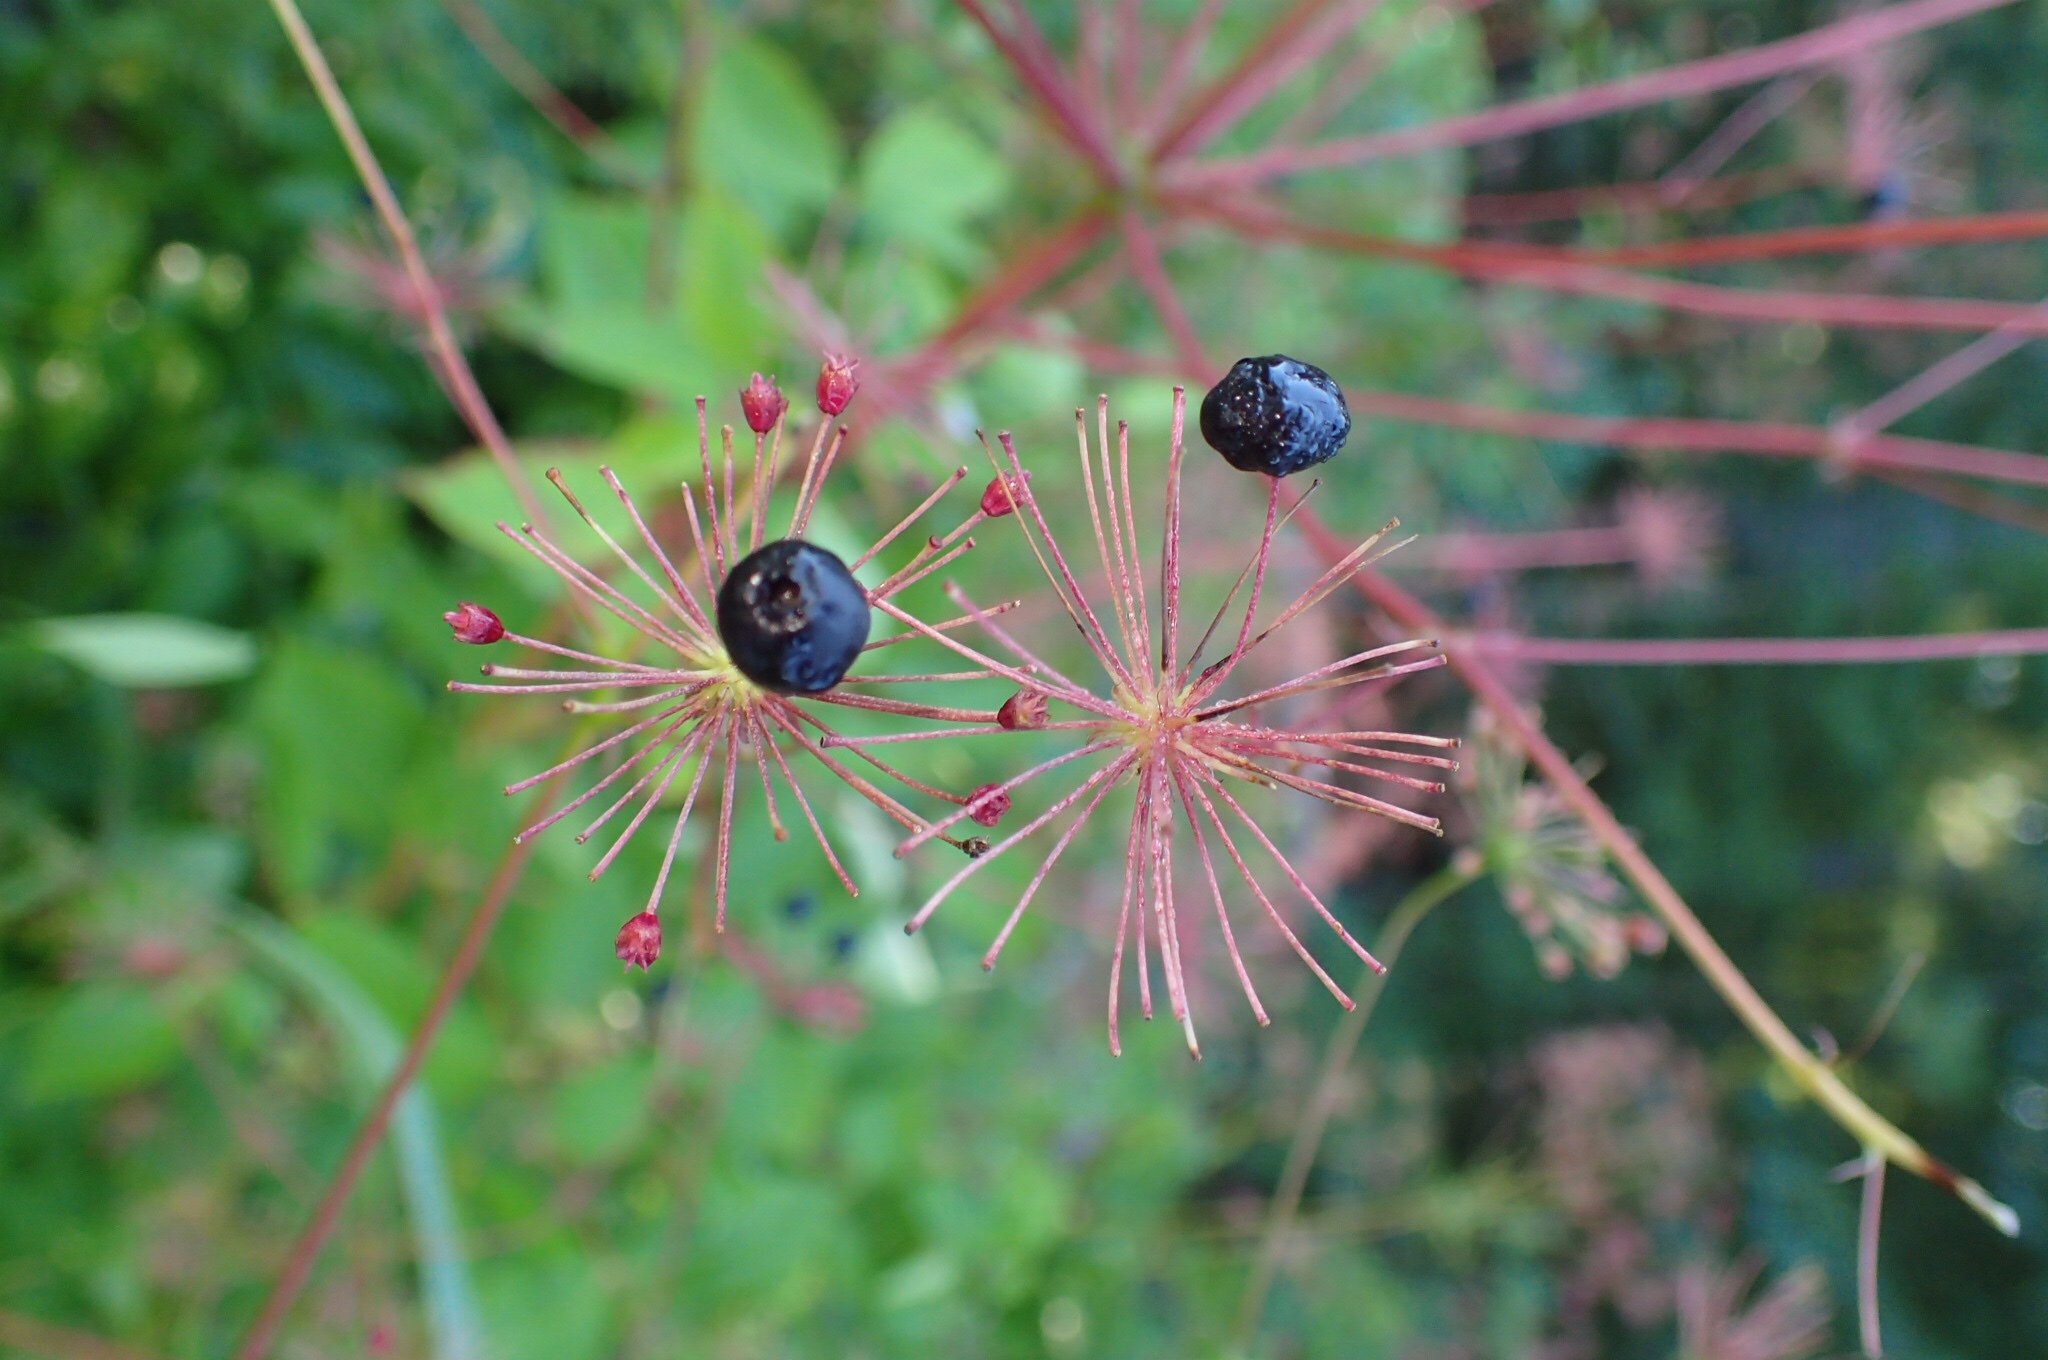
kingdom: Plantae
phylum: Tracheophyta
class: Magnoliopsida
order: Apiales
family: Araliaceae
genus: Aralia
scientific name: Aralia hispida
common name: Bristly sarsaparilla
